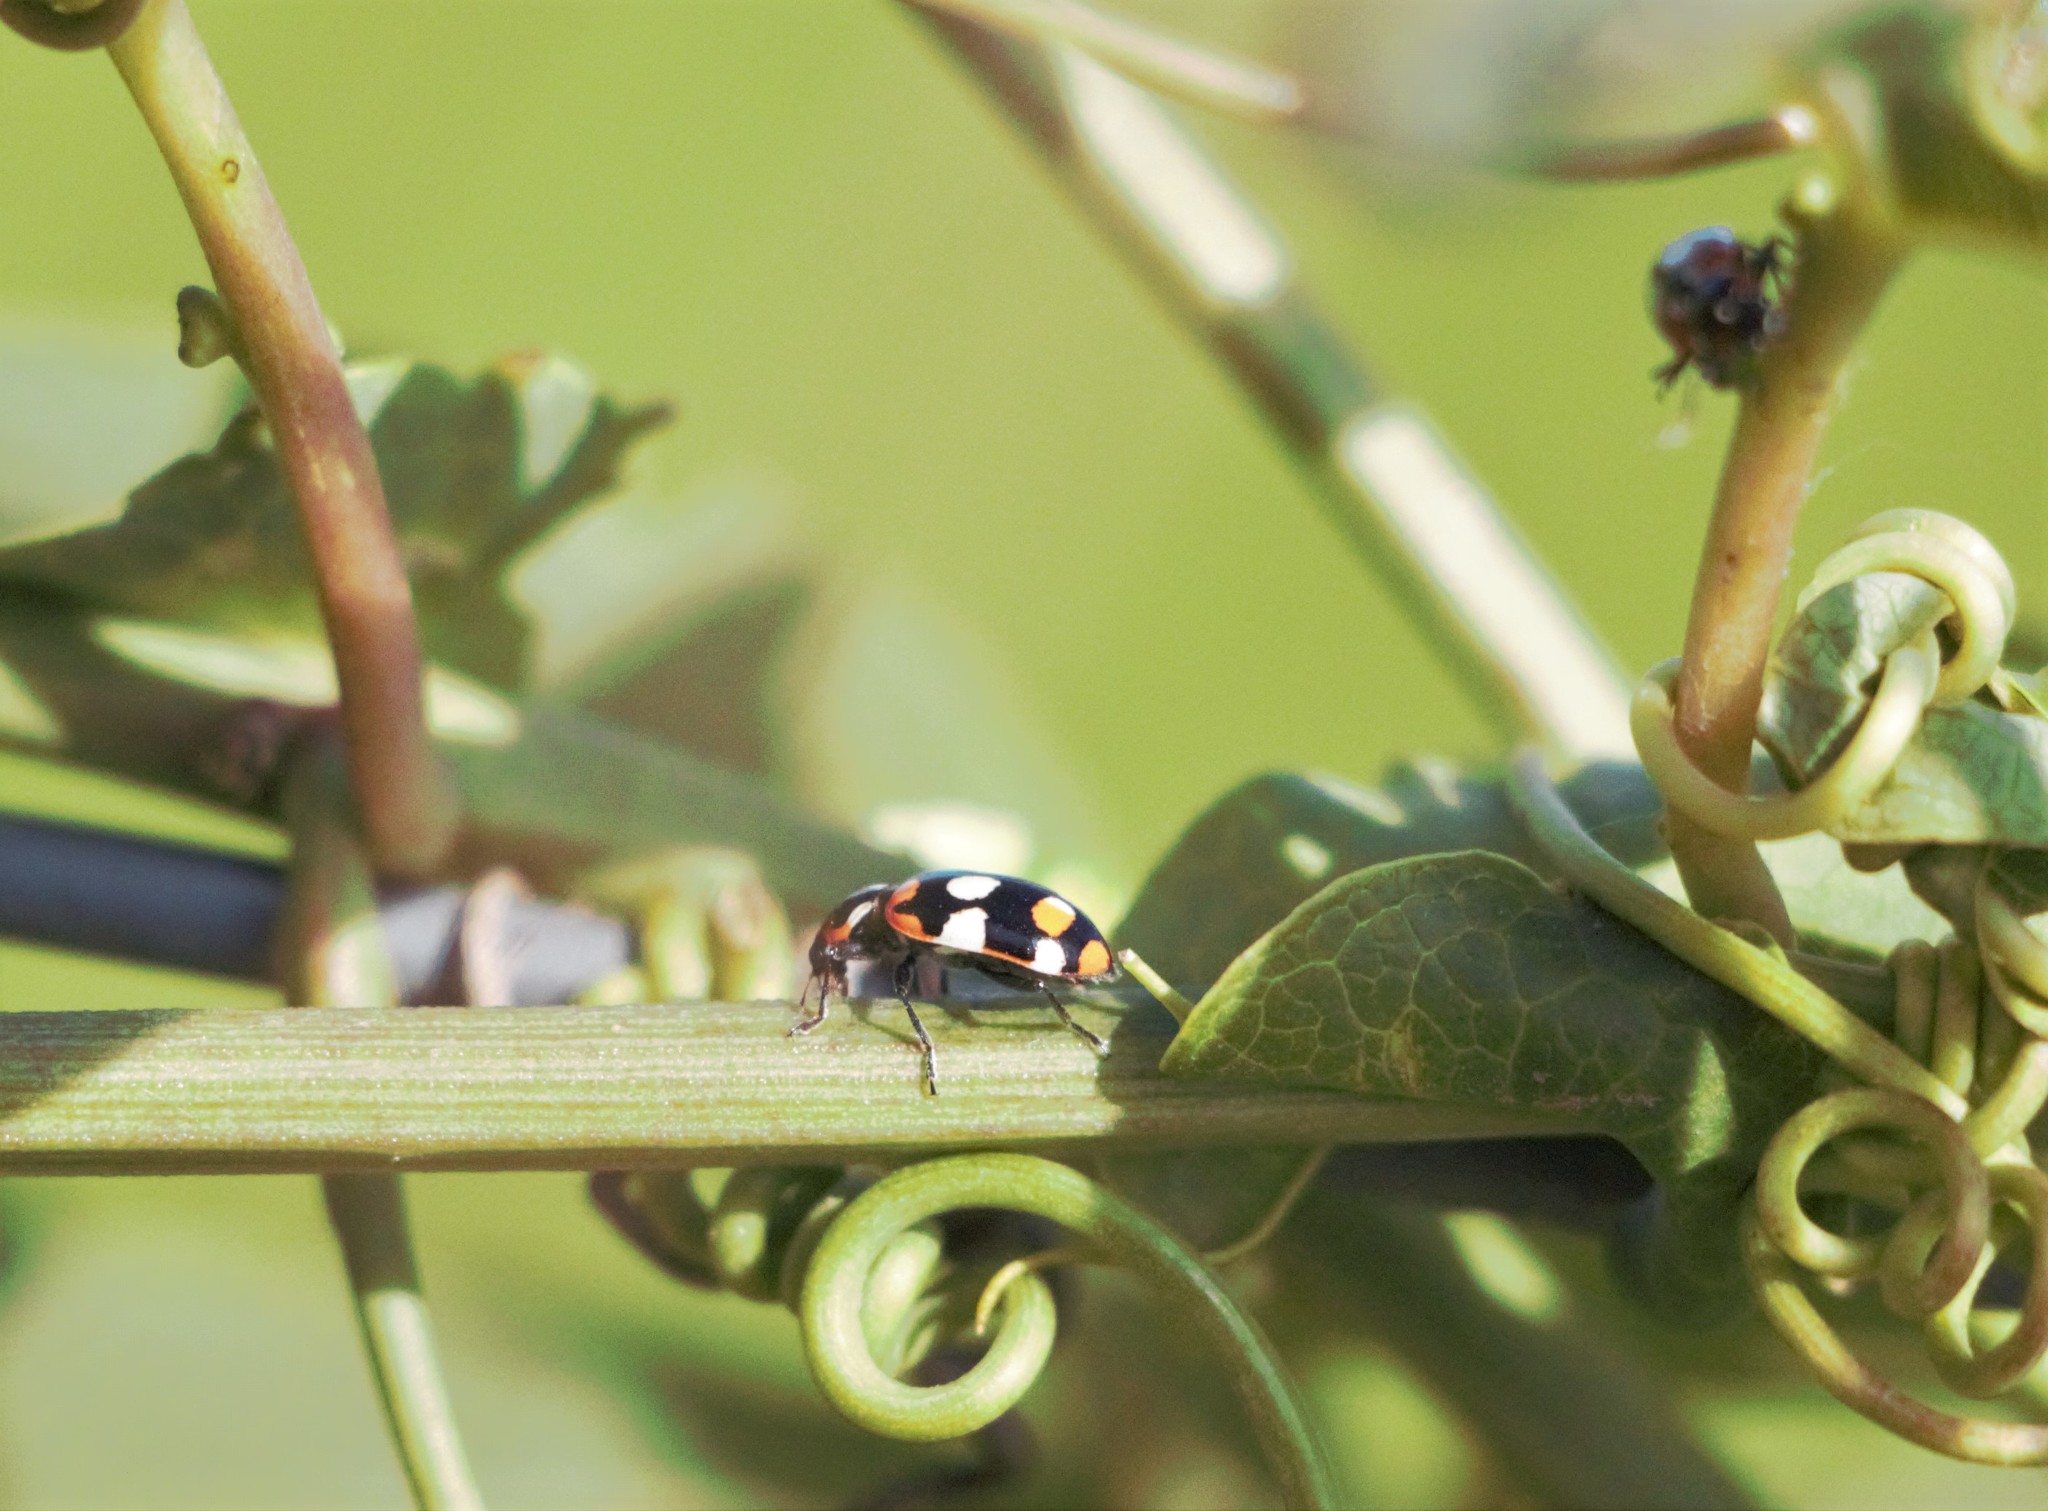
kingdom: Animalia
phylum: Arthropoda
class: Insecta
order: Coleoptera
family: Coccinellidae
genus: Eriopis
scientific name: Eriopis connexa
